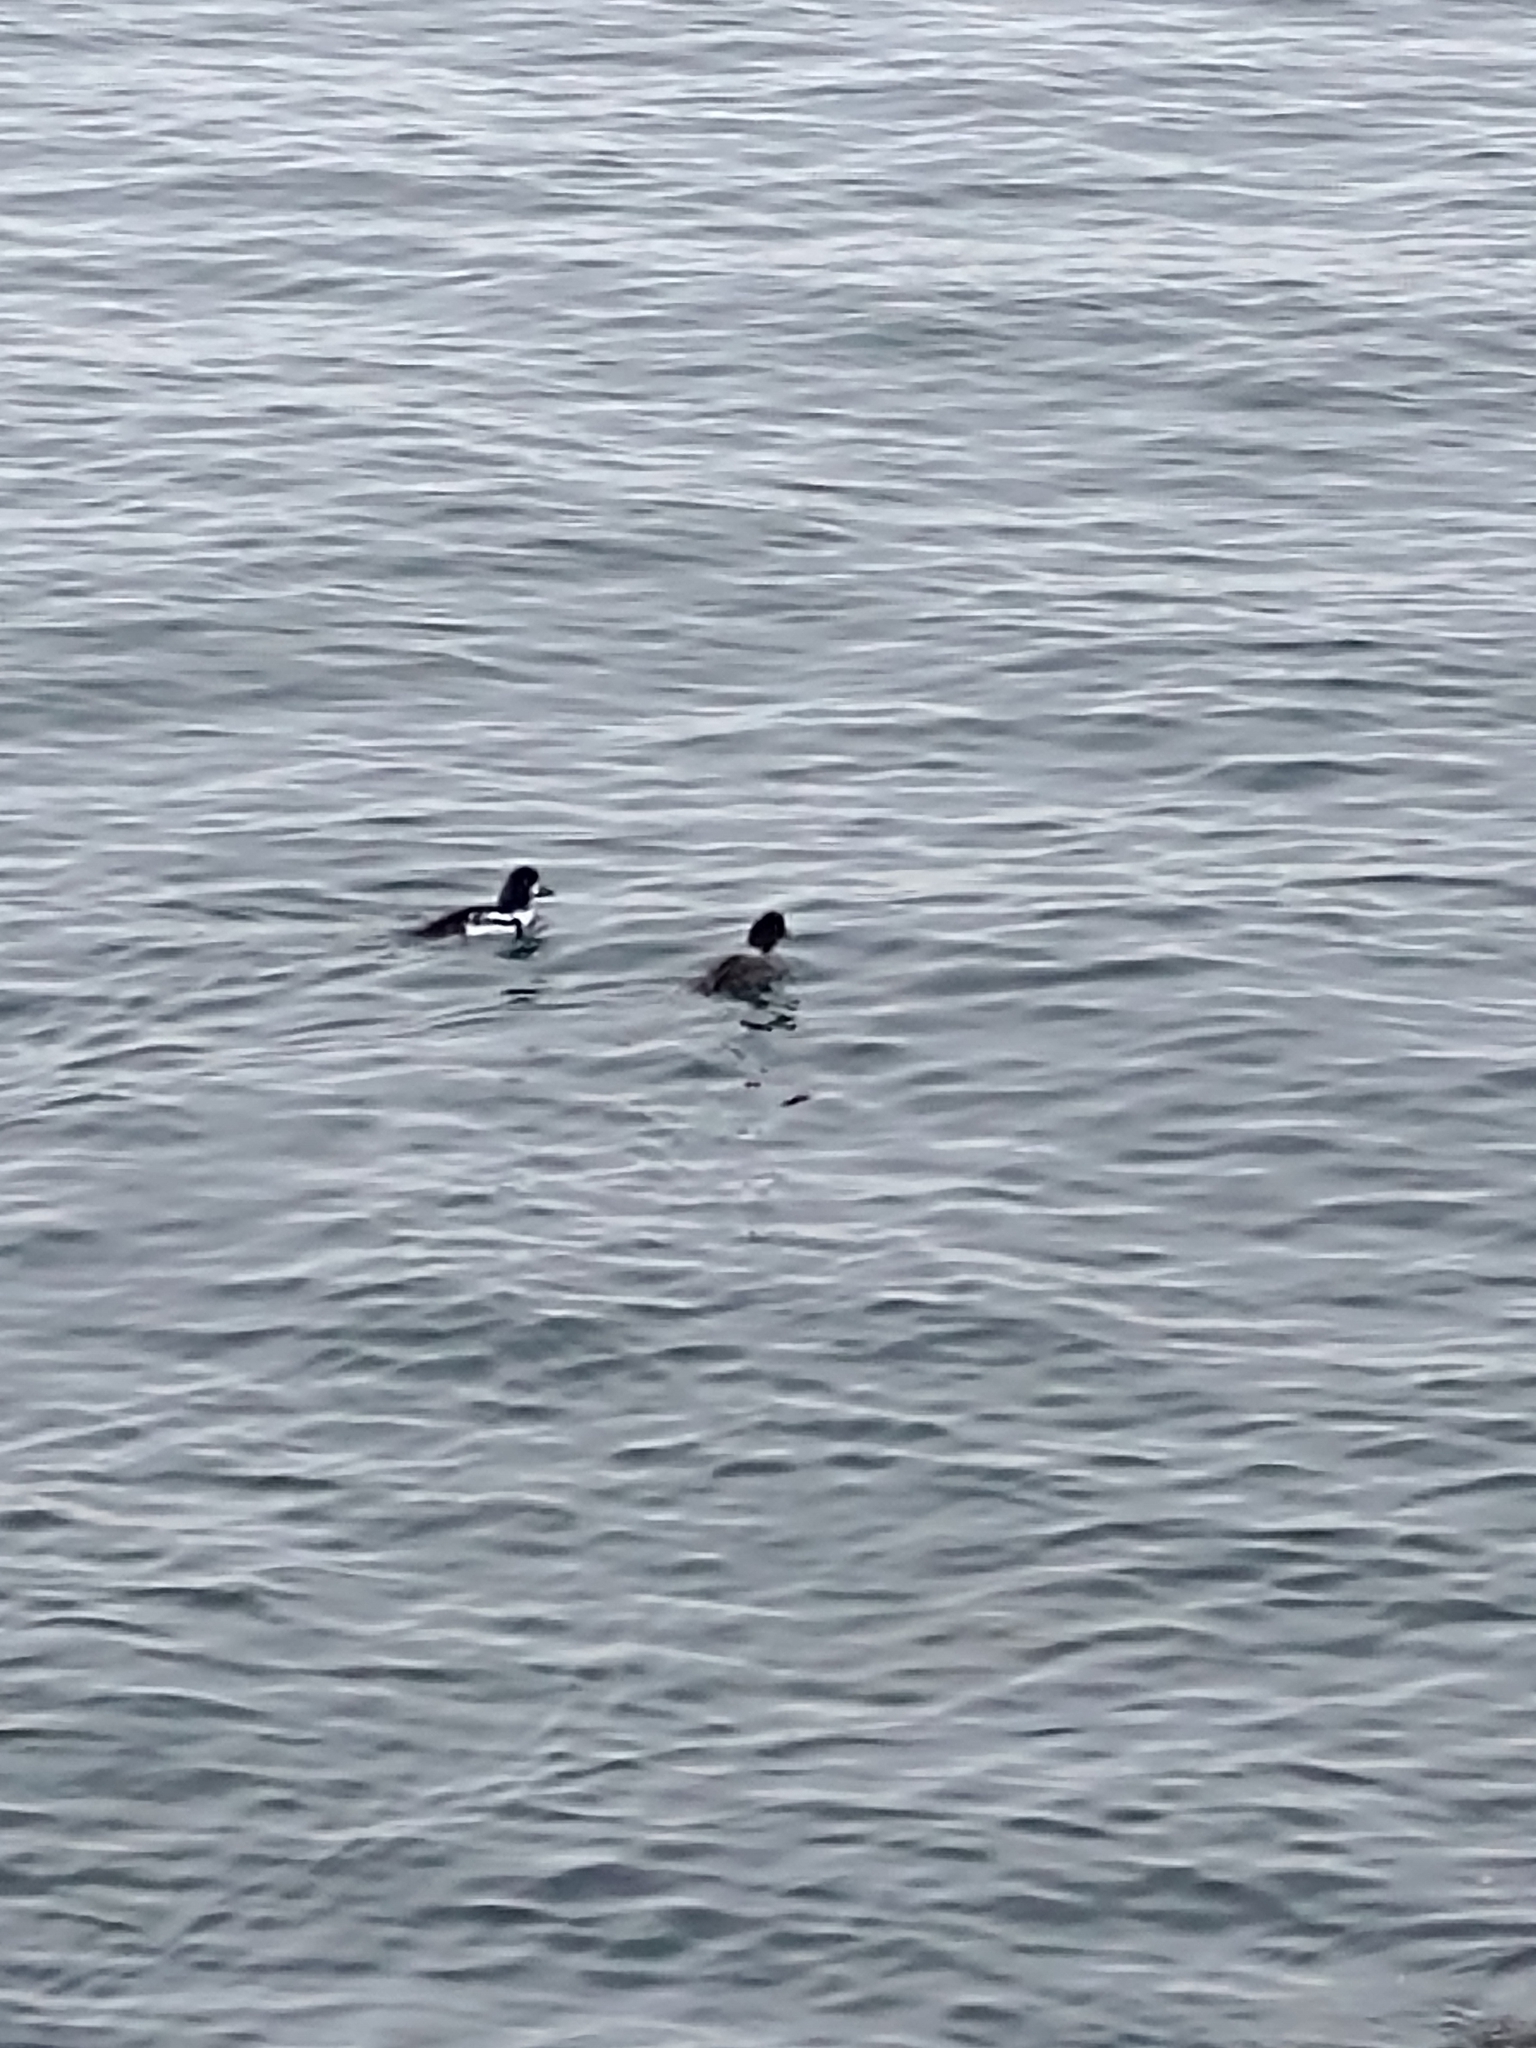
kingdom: Animalia
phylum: Chordata
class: Aves
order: Anseriformes
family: Anatidae
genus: Bucephala
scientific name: Bucephala islandica
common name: Barrow's goldeneye
